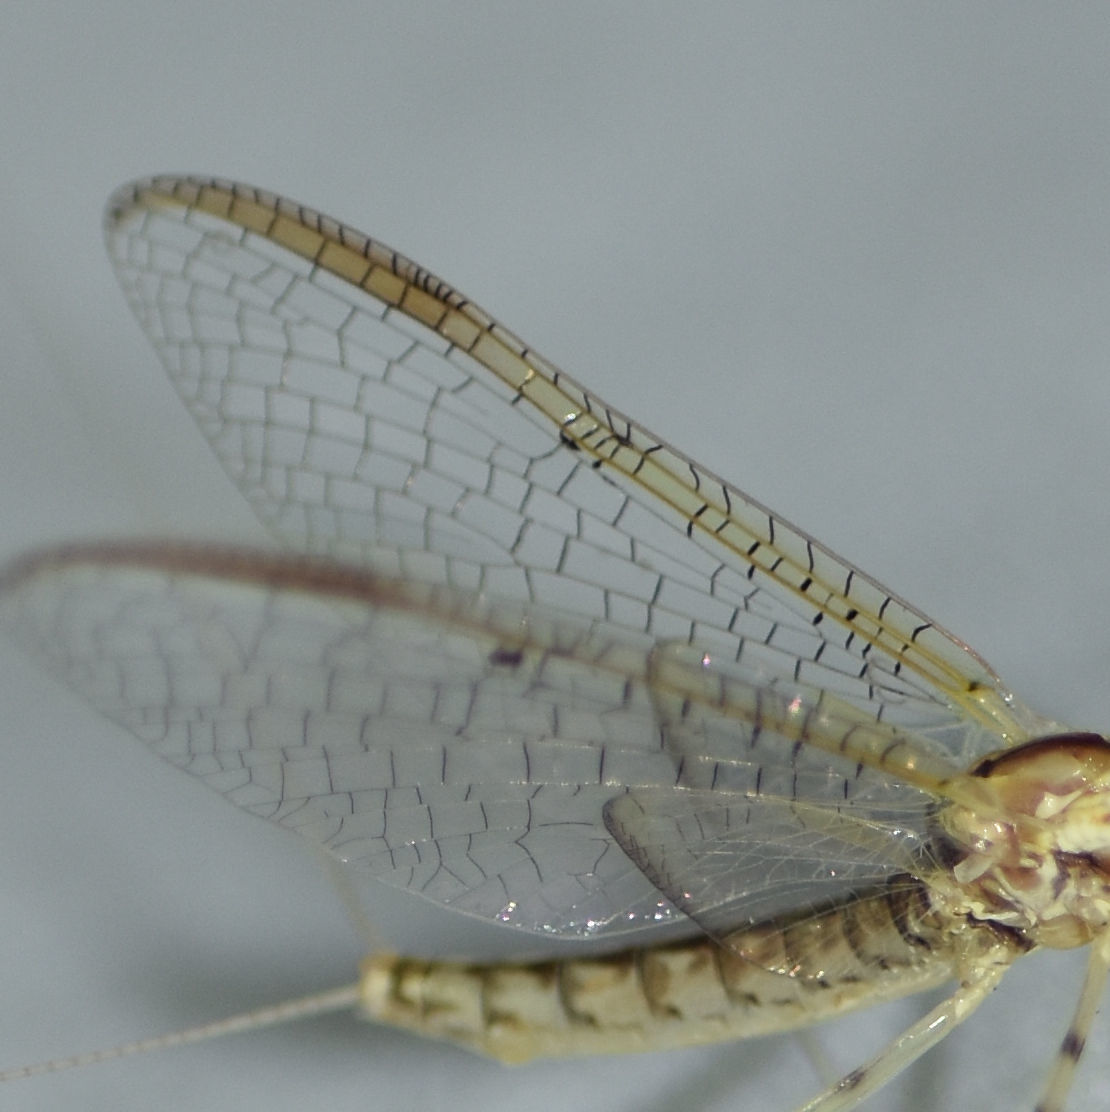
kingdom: Animalia
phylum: Arthropoda
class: Insecta
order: Ephemeroptera
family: Heptageniidae
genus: Stenacron
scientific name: Stenacron interpunctatum
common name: Orange cahill
